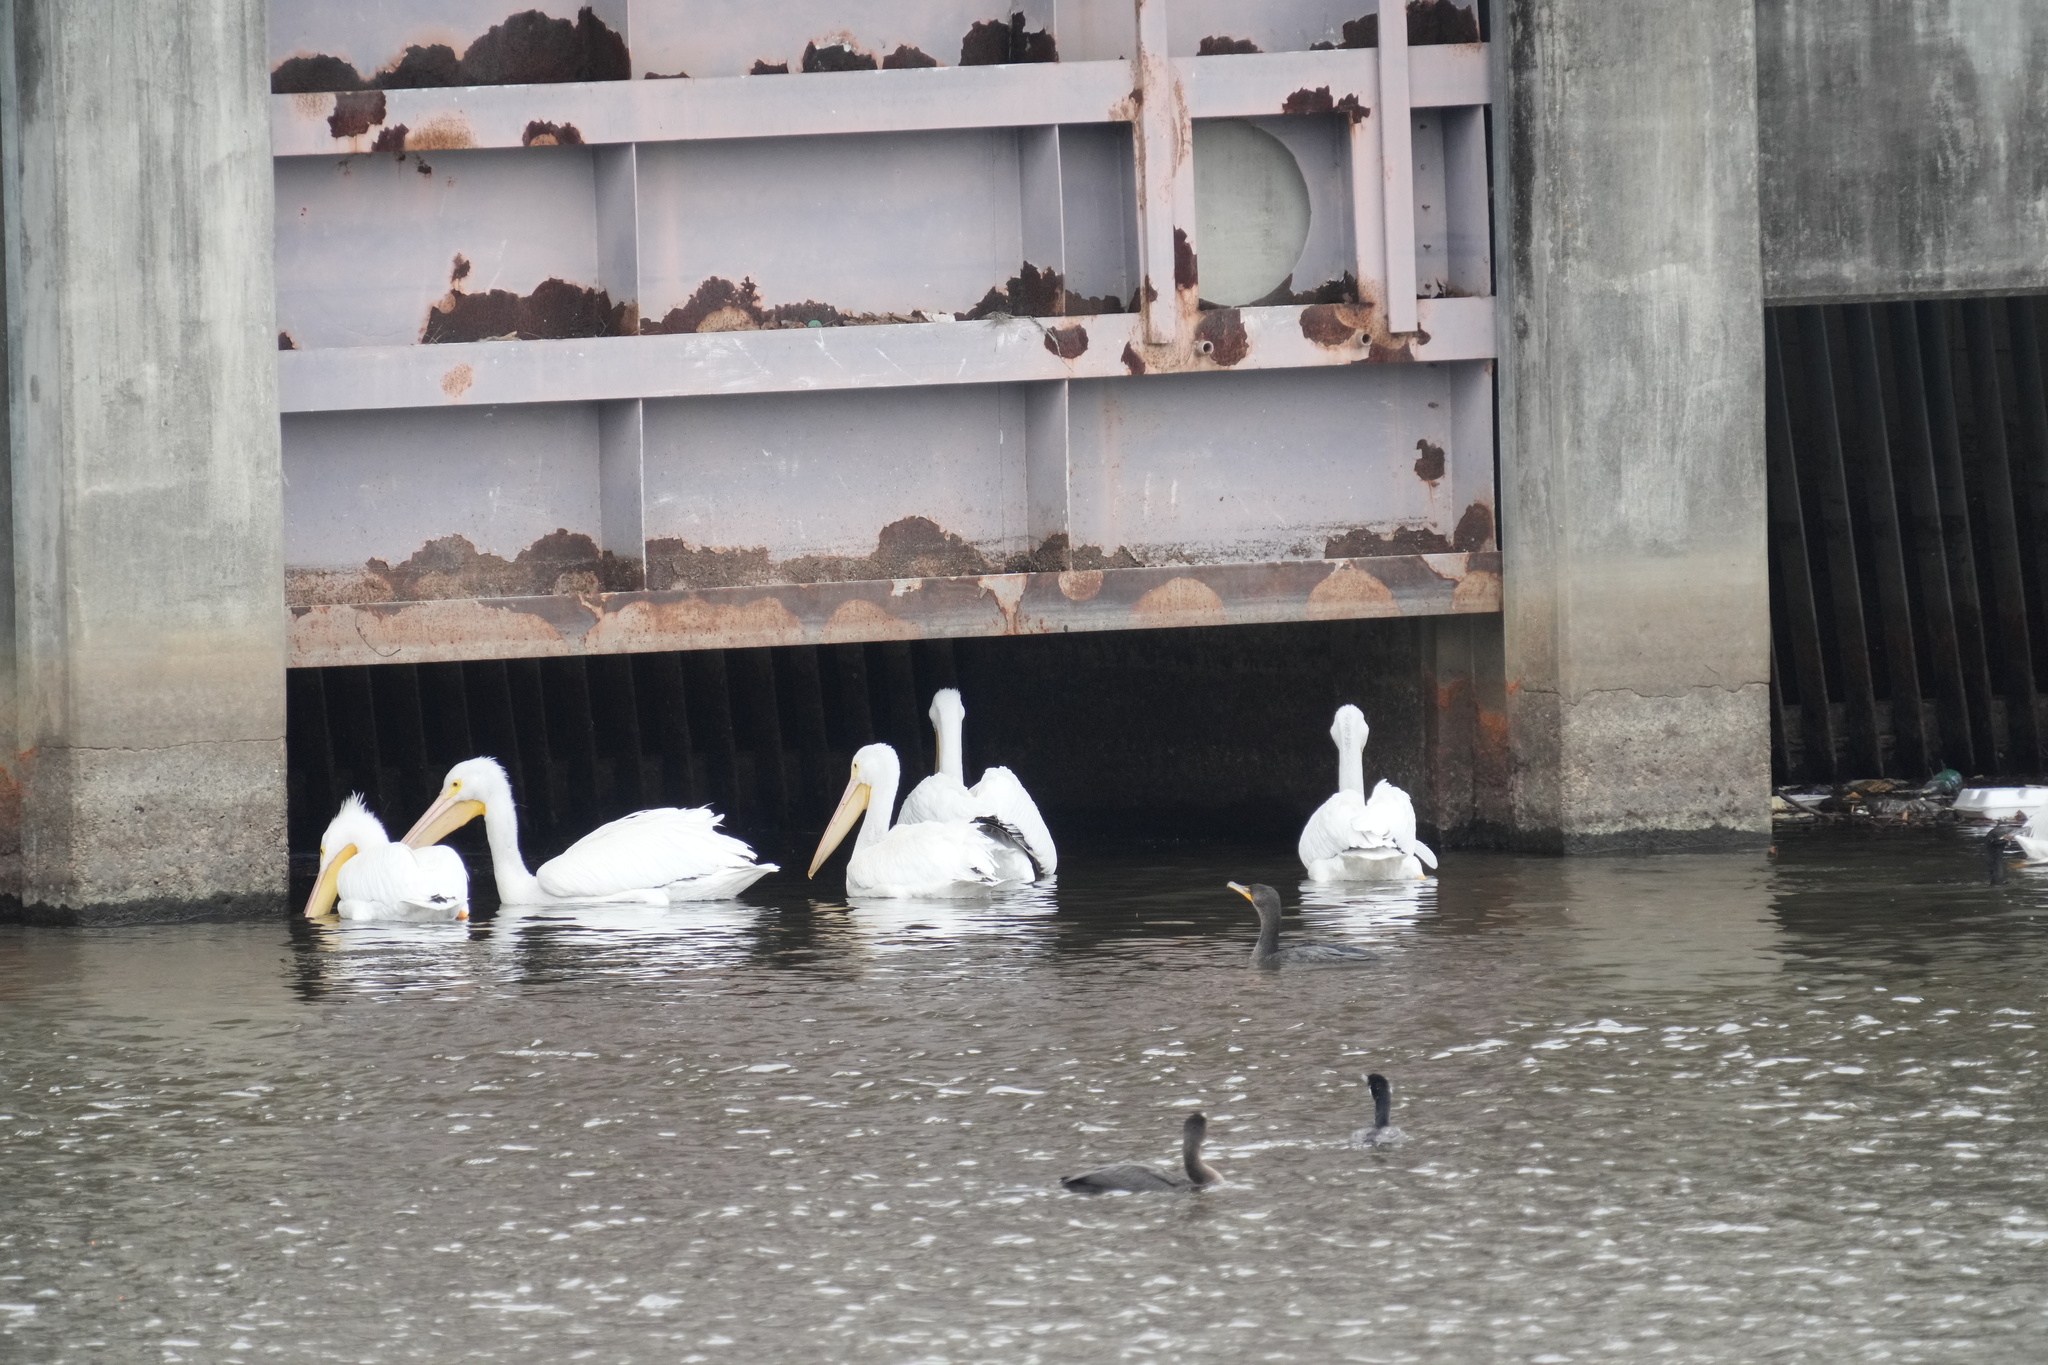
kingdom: Animalia
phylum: Chordata
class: Aves
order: Pelecaniformes
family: Pelecanidae
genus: Pelecanus
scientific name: Pelecanus erythrorhynchos
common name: American white pelican
